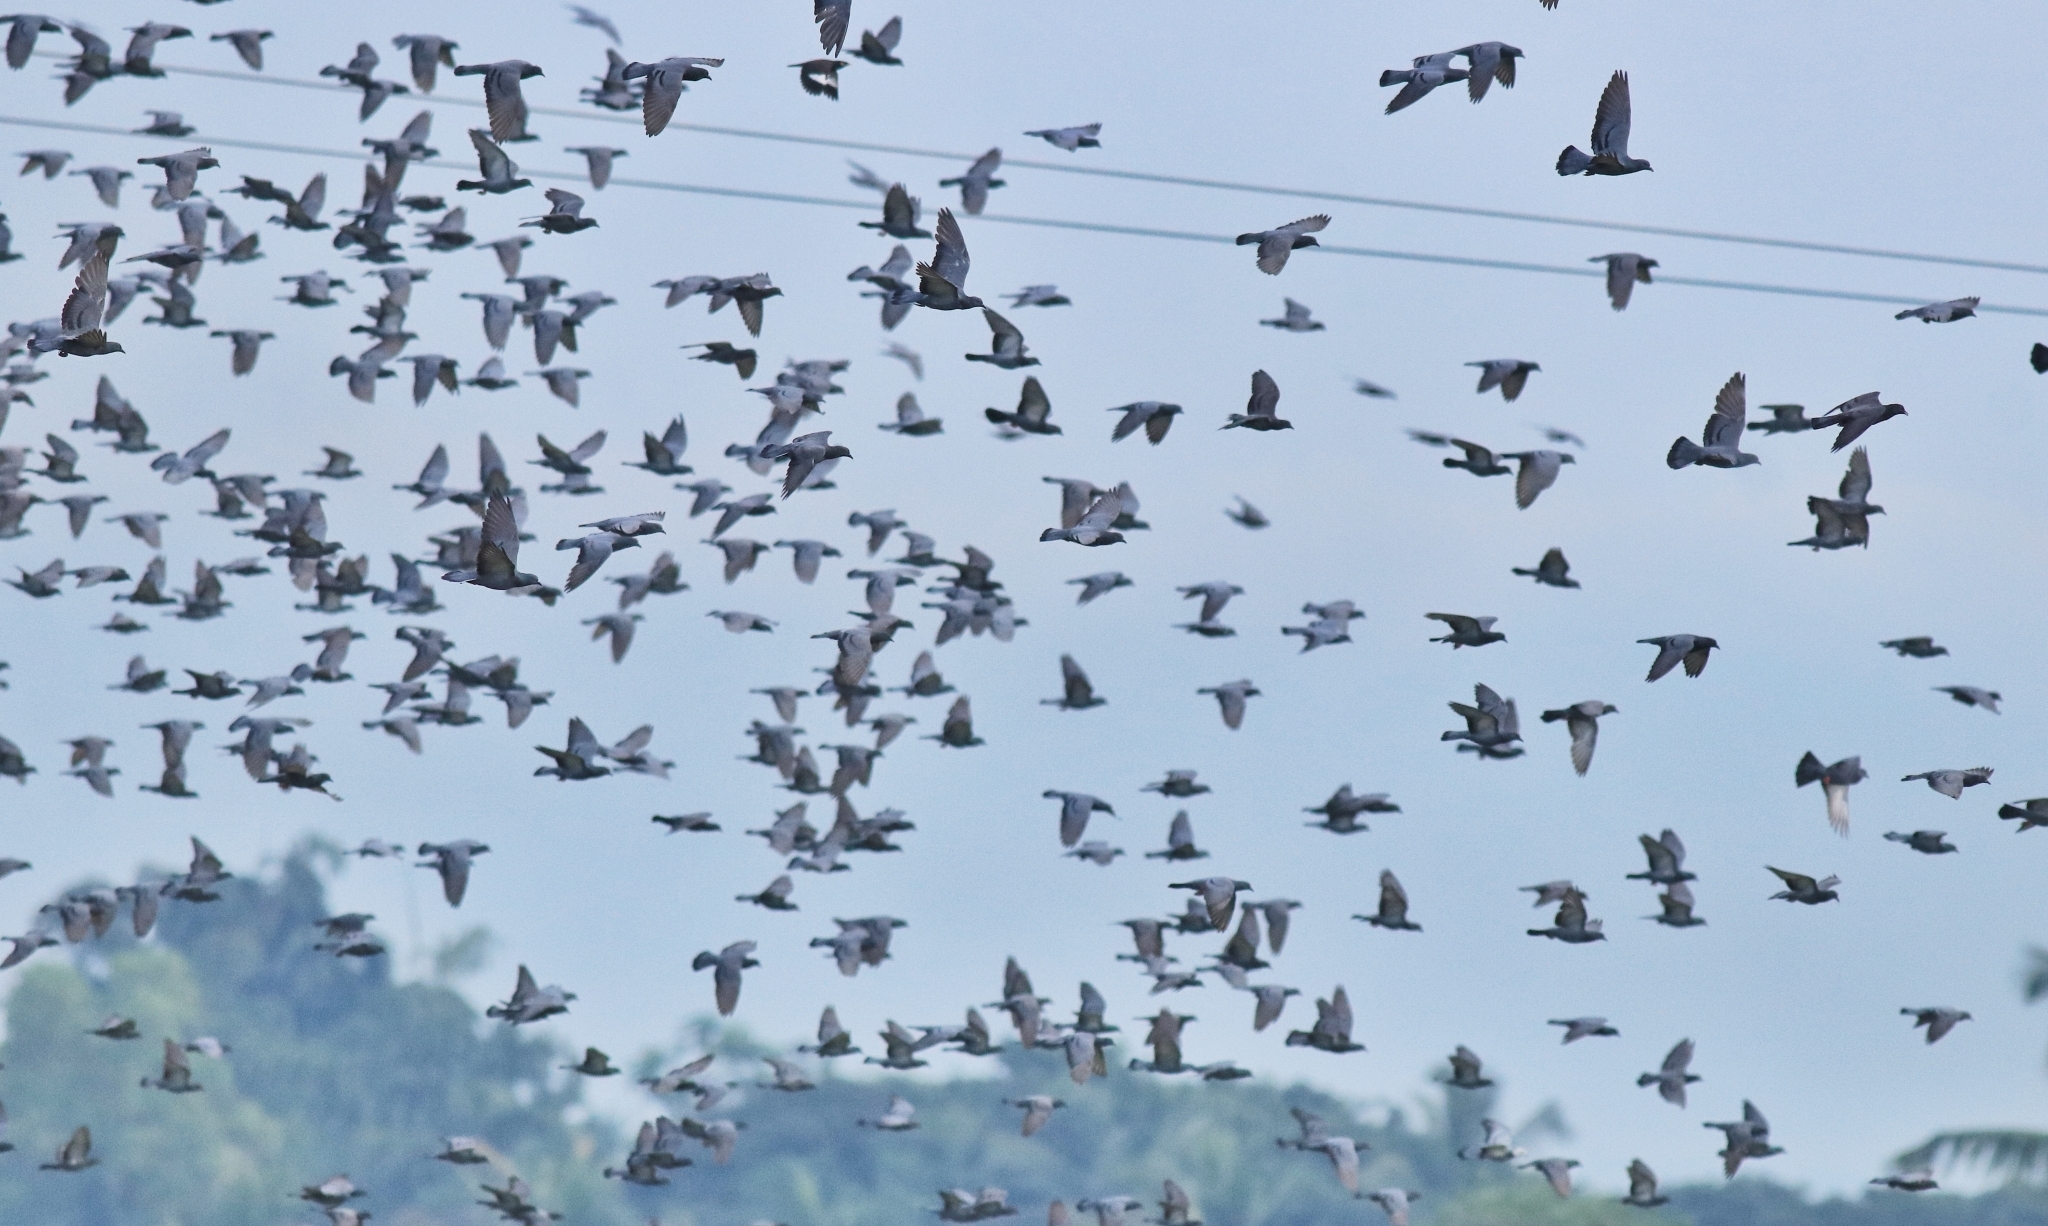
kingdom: Animalia
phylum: Chordata
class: Aves
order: Columbiformes
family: Columbidae
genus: Columba
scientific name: Columba livia
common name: Rock pigeon
